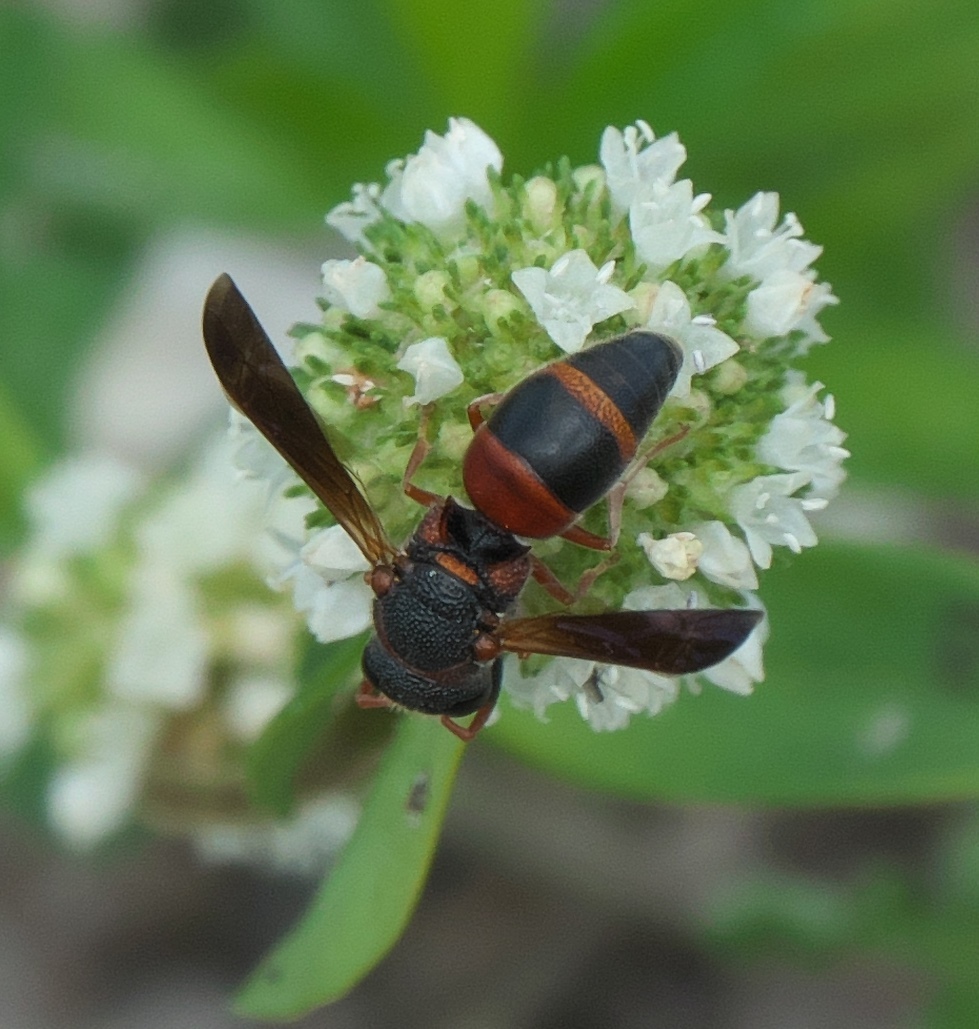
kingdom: Animalia
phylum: Arthropoda
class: Insecta
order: Hymenoptera
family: Eumenidae
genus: Pachodynerus
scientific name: Pachodynerus erynnis
